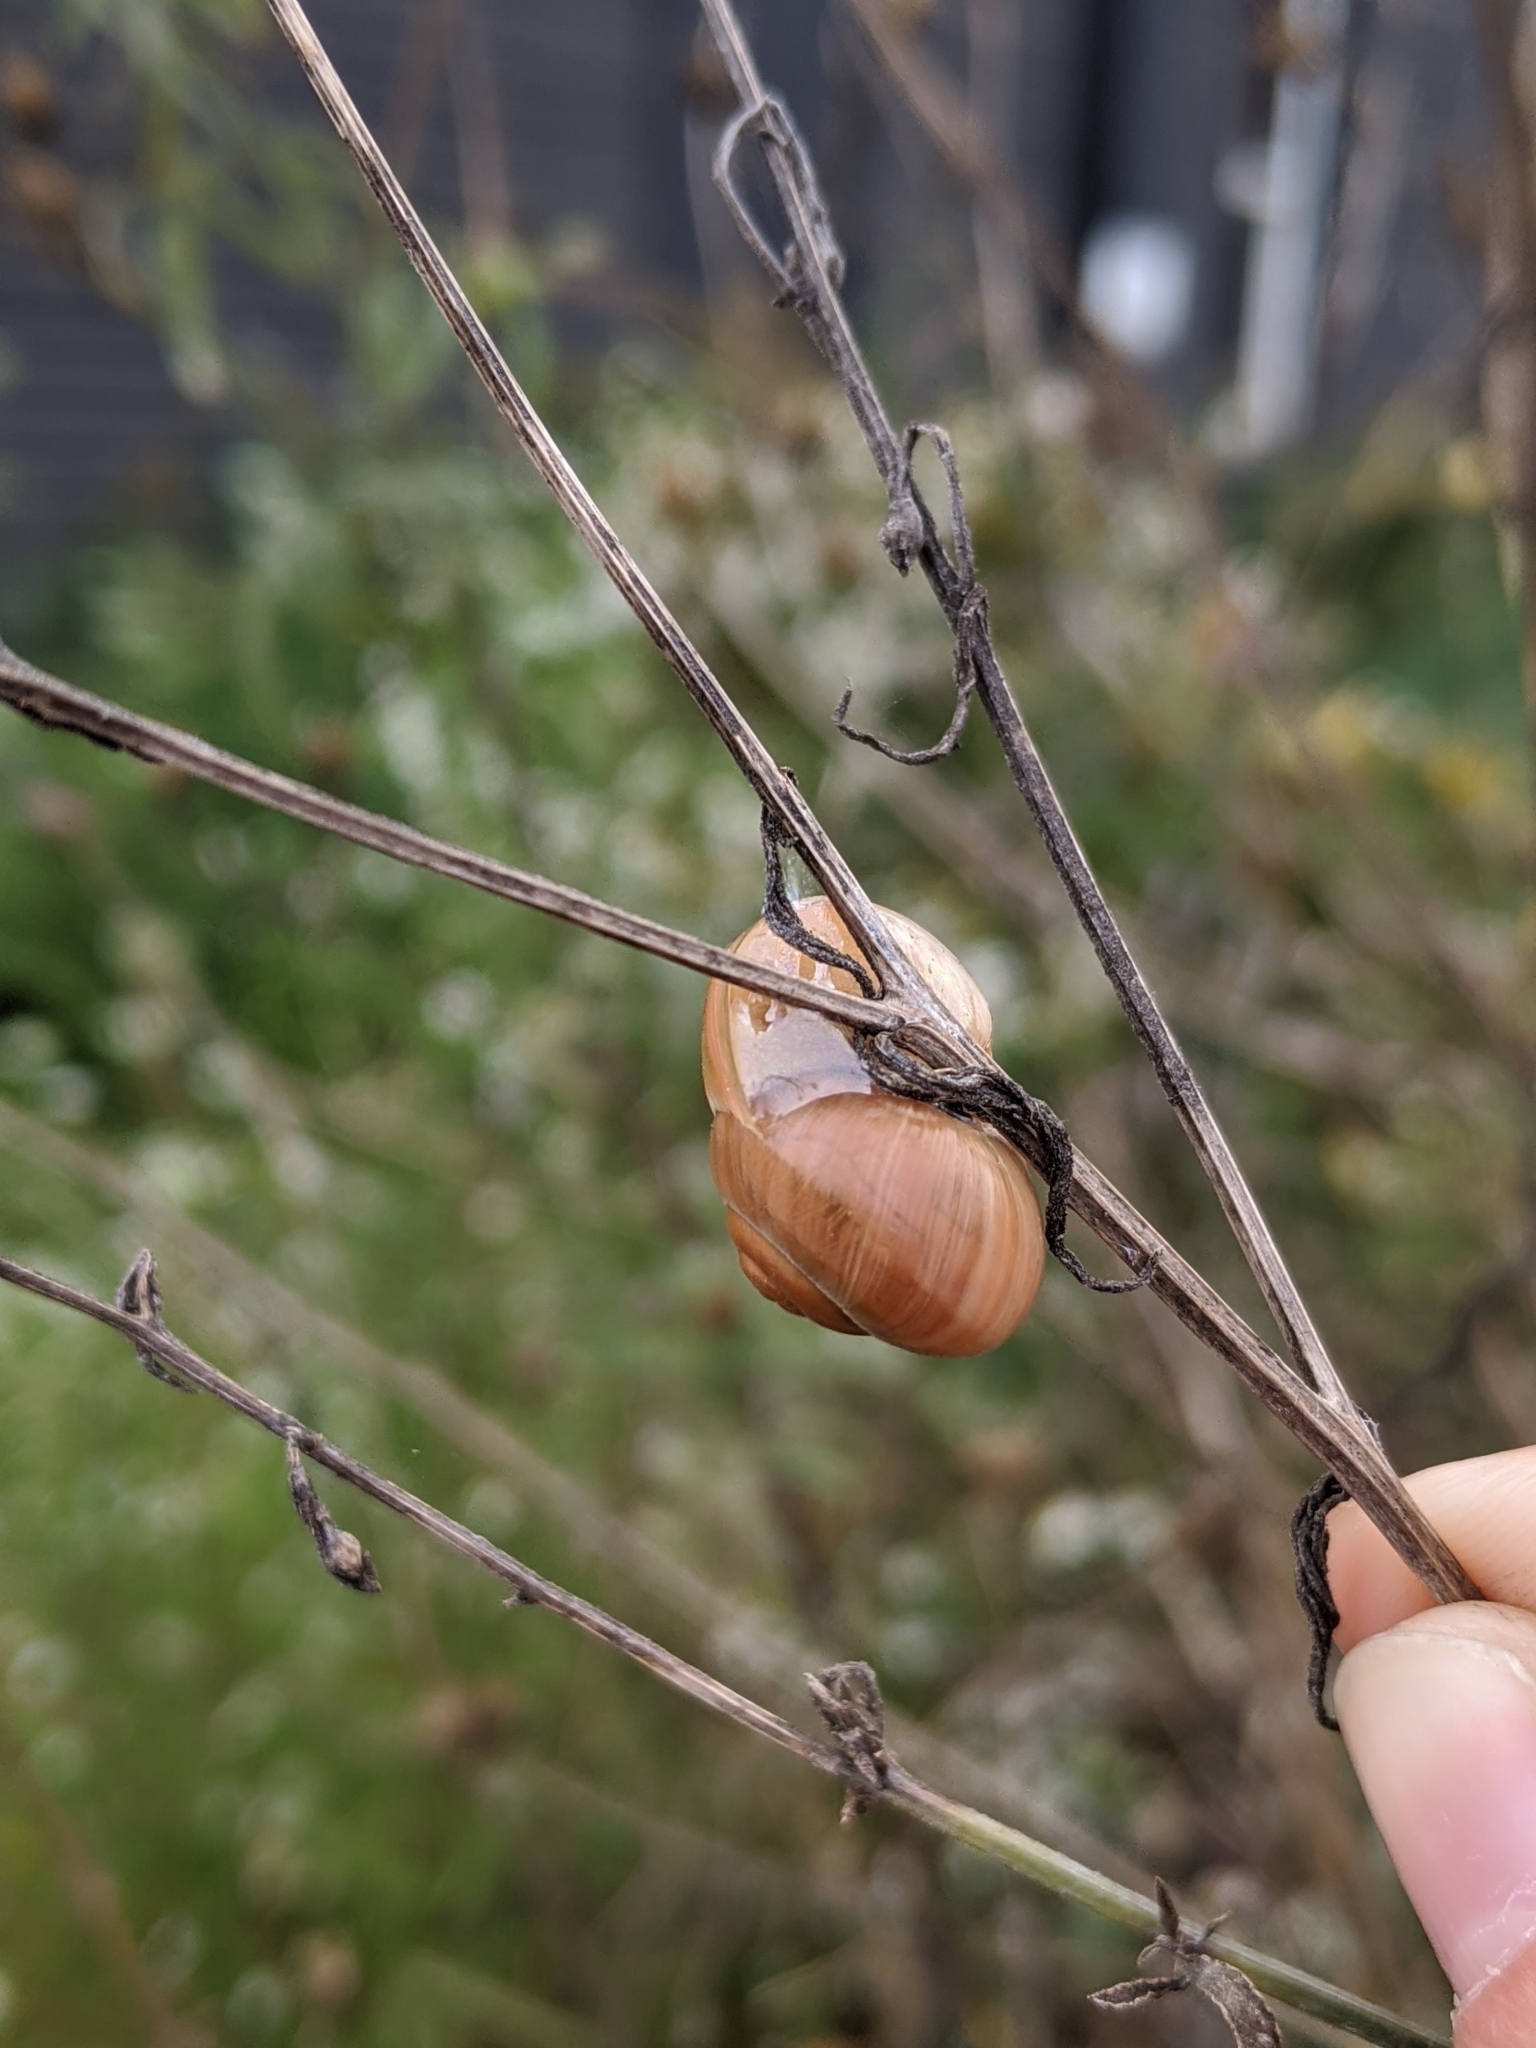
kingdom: Animalia
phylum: Mollusca
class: Gastropoda
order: Stylommatophora
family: Helicidae
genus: Cepaea
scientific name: Cepaea
